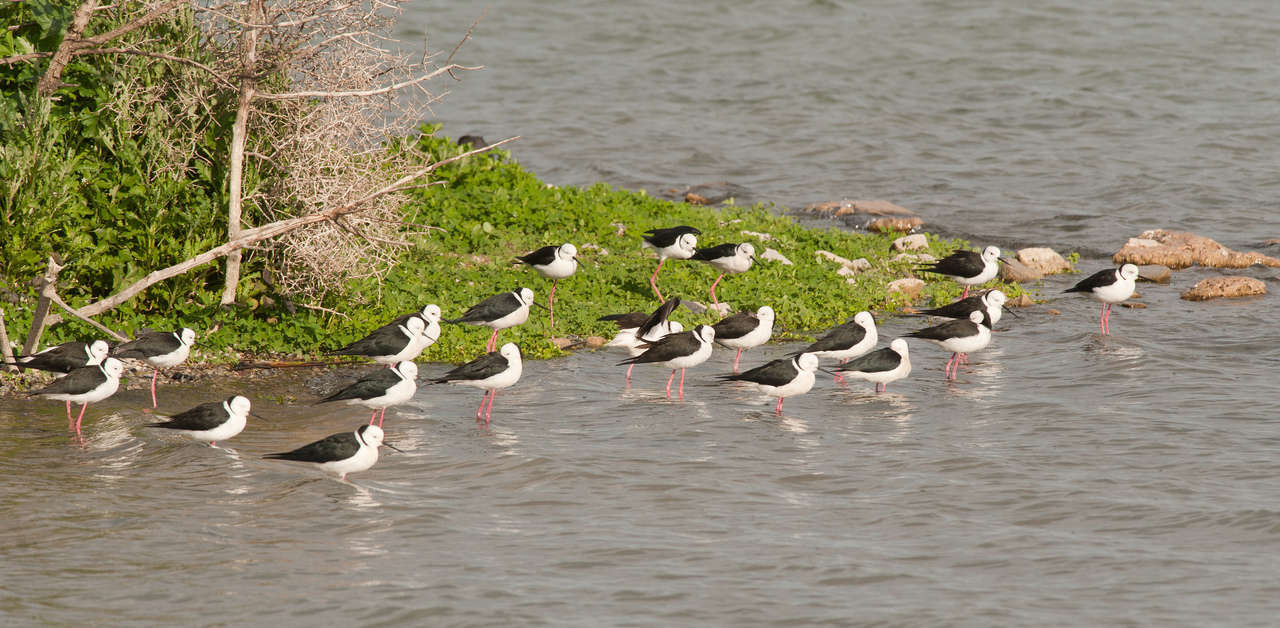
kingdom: Animalia
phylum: Chordata
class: Aves
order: Charadriiformes
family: Recurvirostridae
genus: Himantopus
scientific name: Himantopus leucocephalus
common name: White-headed stilt
